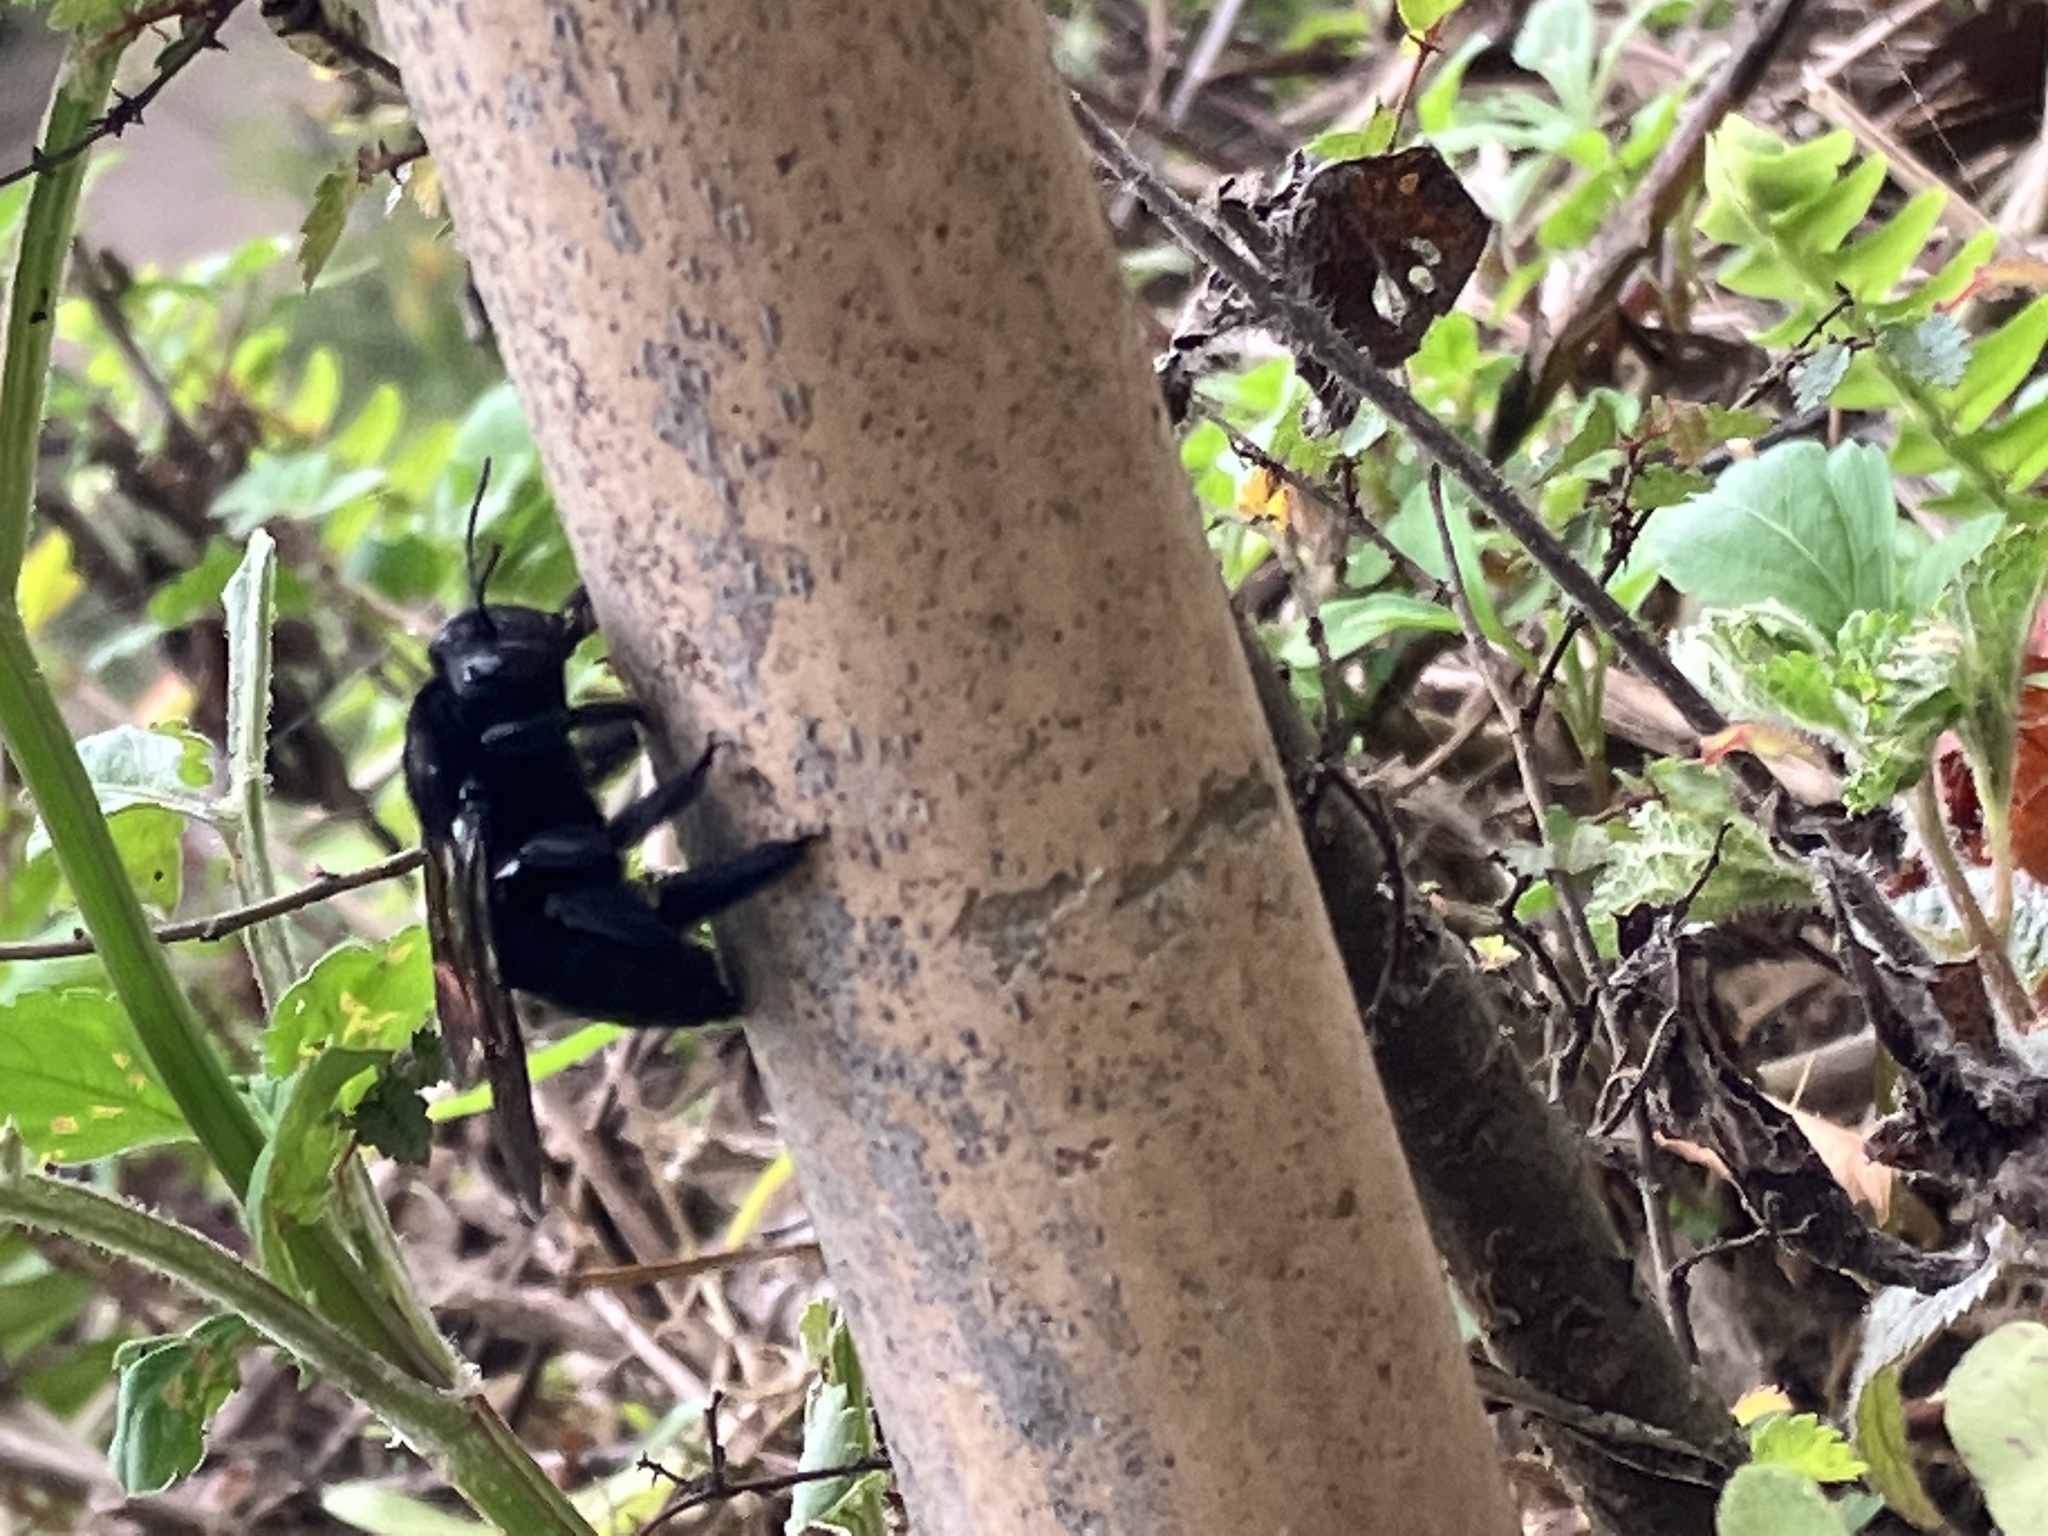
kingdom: Animalia
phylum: Arthropoda
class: Insecta
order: Hymenoptera
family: Apidae
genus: Xylocopa
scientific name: Xylocopa tranquebarorum
